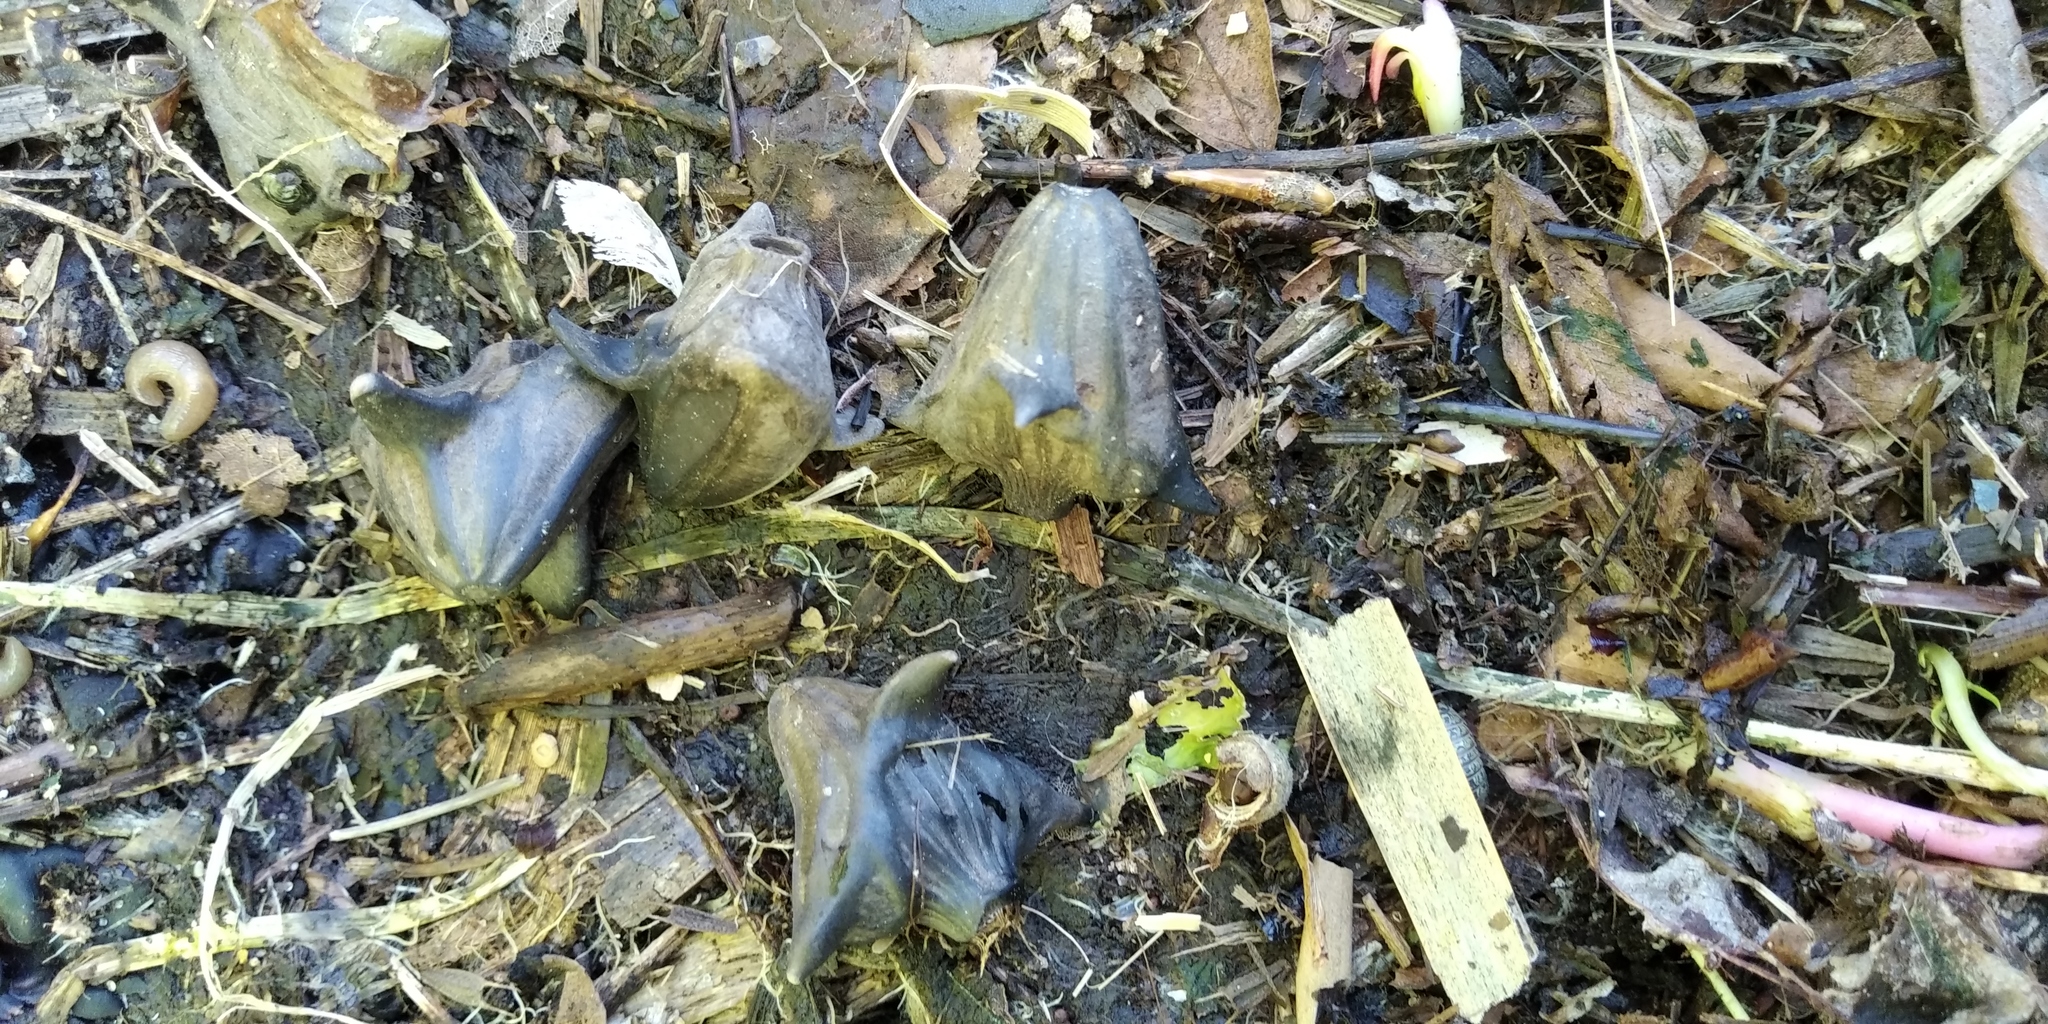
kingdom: Plantae
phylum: Tracheophyta
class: Magnoliopsida
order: Myrtales
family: Lythraceae
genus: Trapa
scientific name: Trapa natans
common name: Water chestnut
